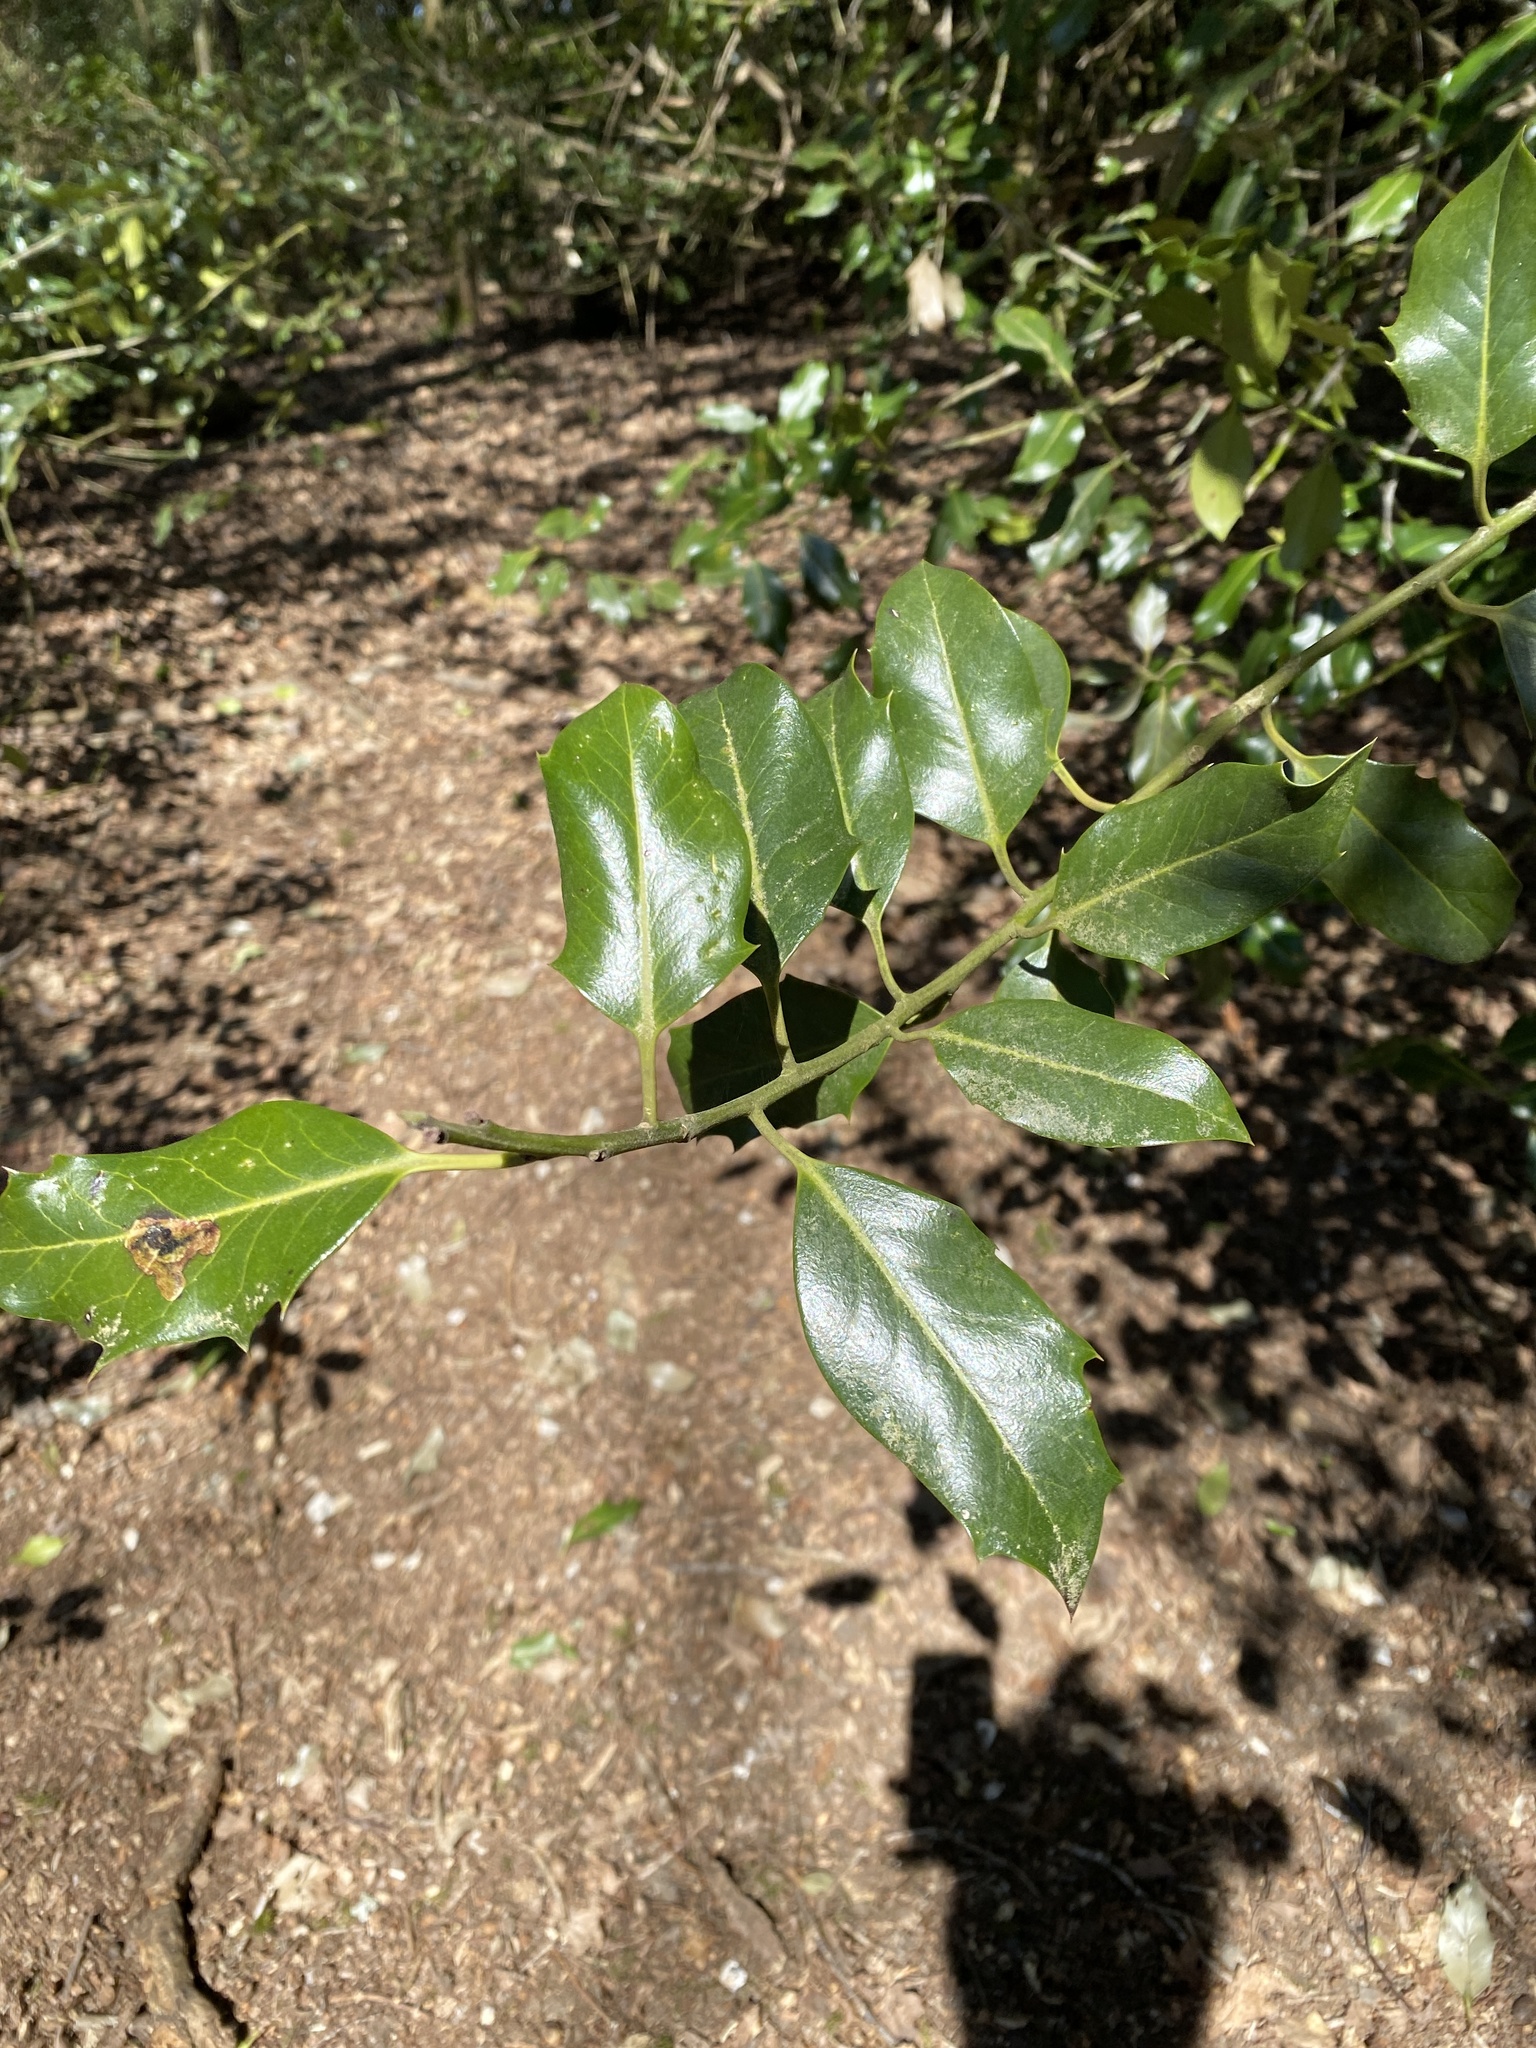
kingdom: Plantae
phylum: Tracheophyta
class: Magnoliopsida
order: Aquifoliales
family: Aquifoliaceae
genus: Ilex
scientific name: Ilex aquifolium
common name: English holly
